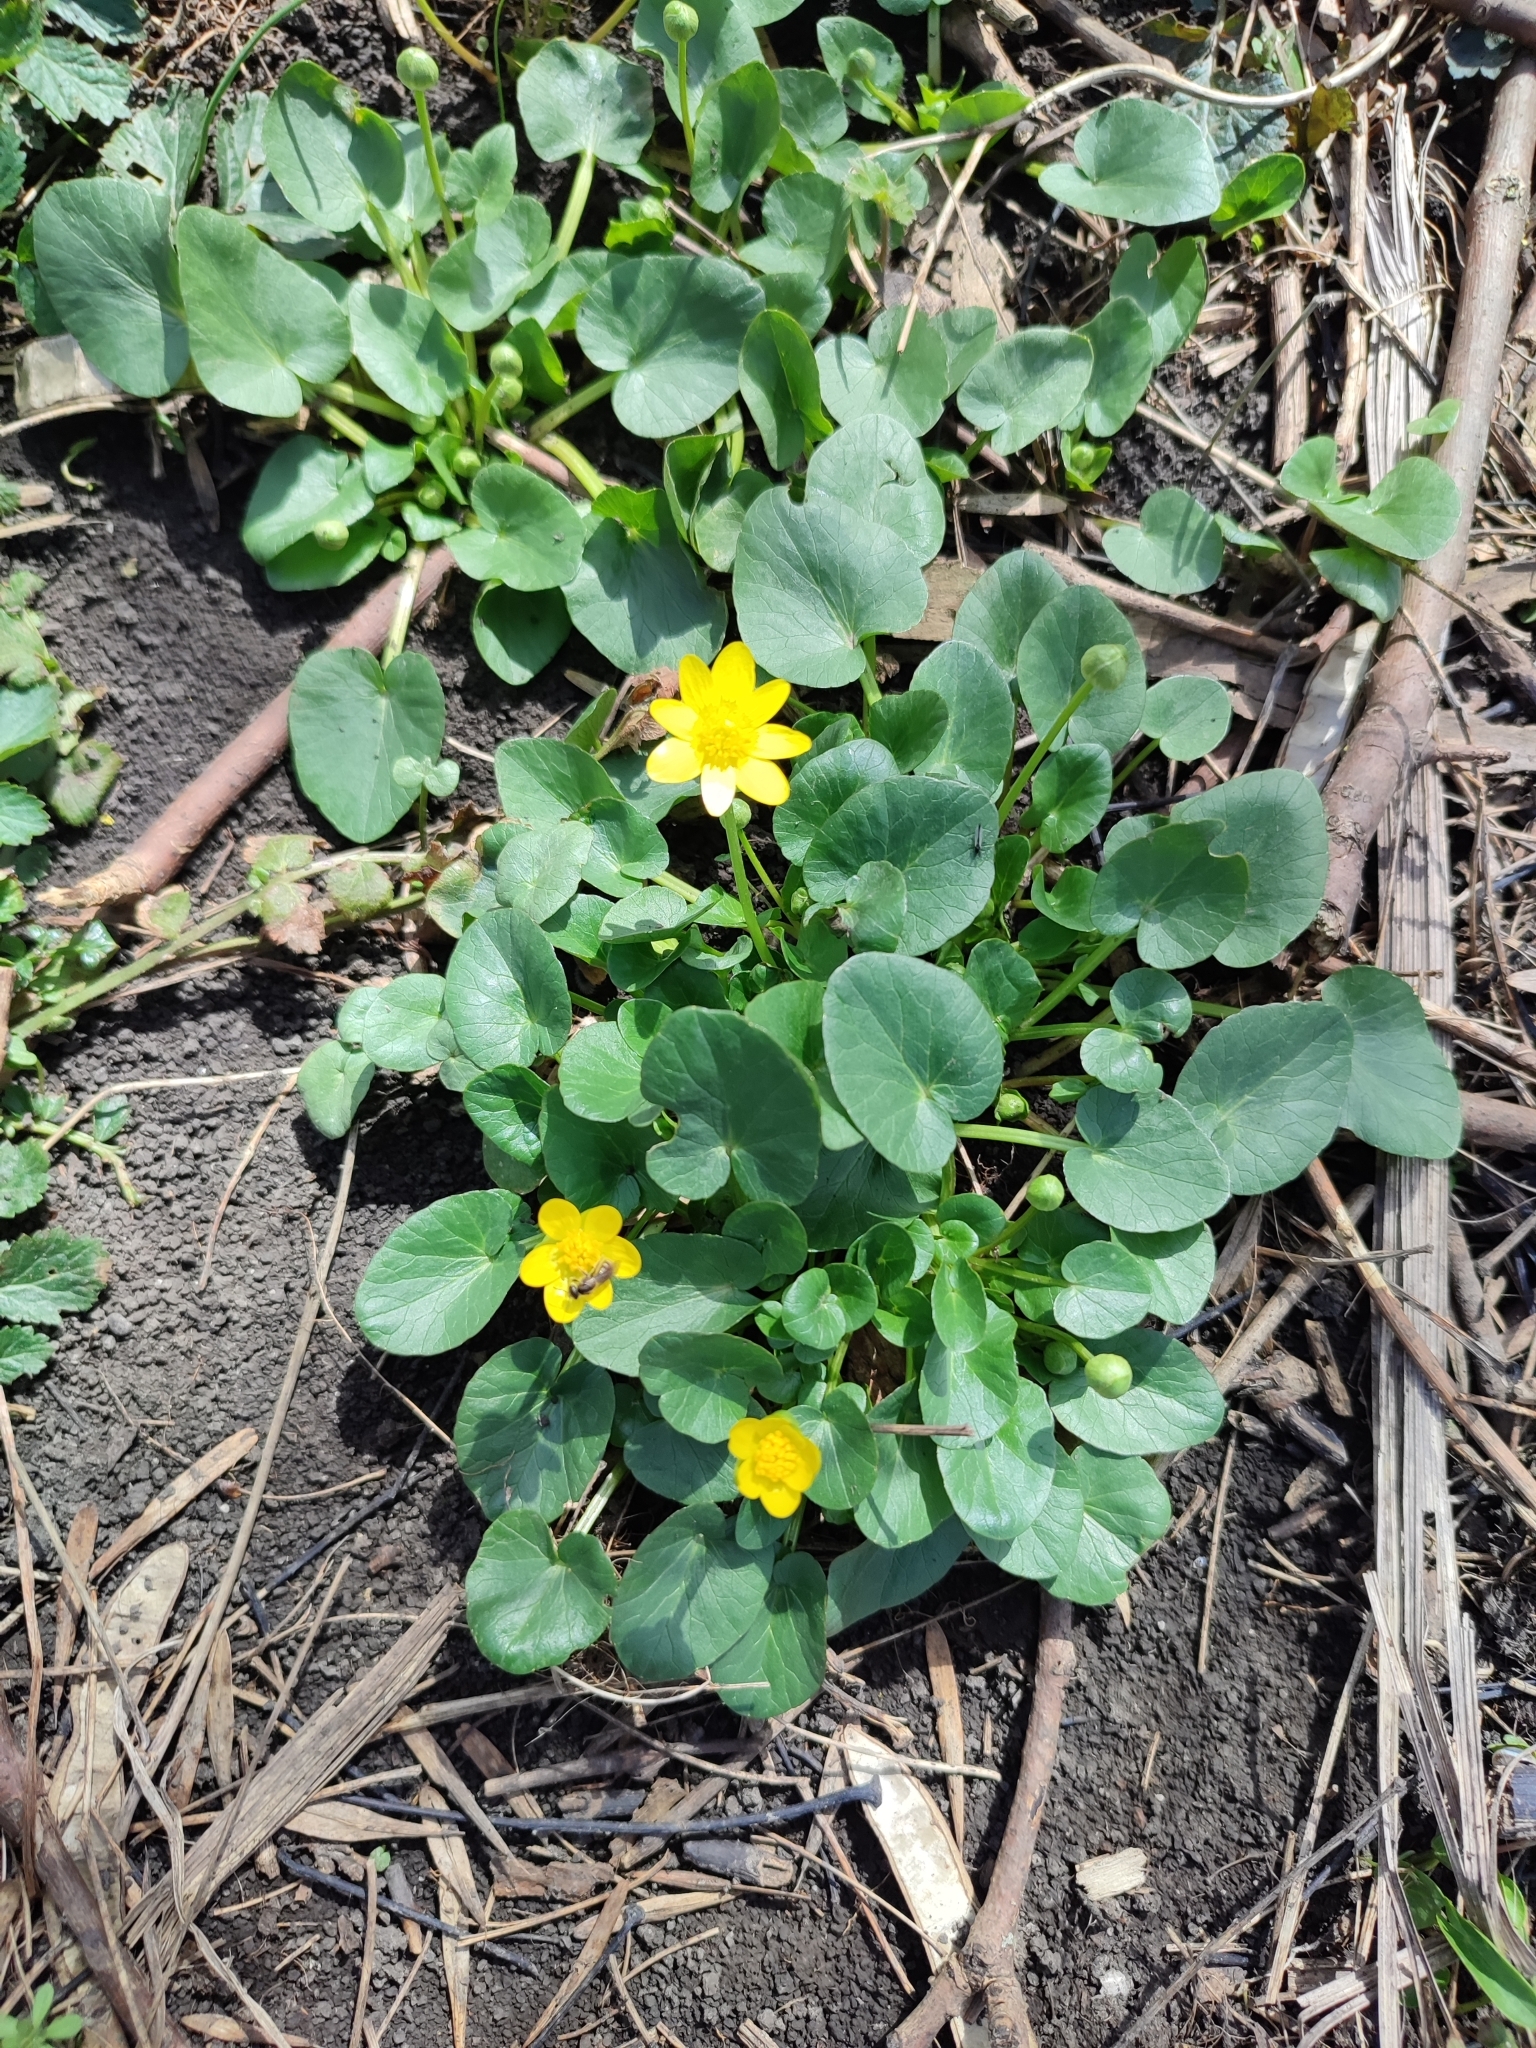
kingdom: Plantae
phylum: Tracheophyta
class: Magnoliopsida
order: Ranunculales
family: Ranunculaceae
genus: Ficaria
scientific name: Ficaria verna
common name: Lesser celandine
